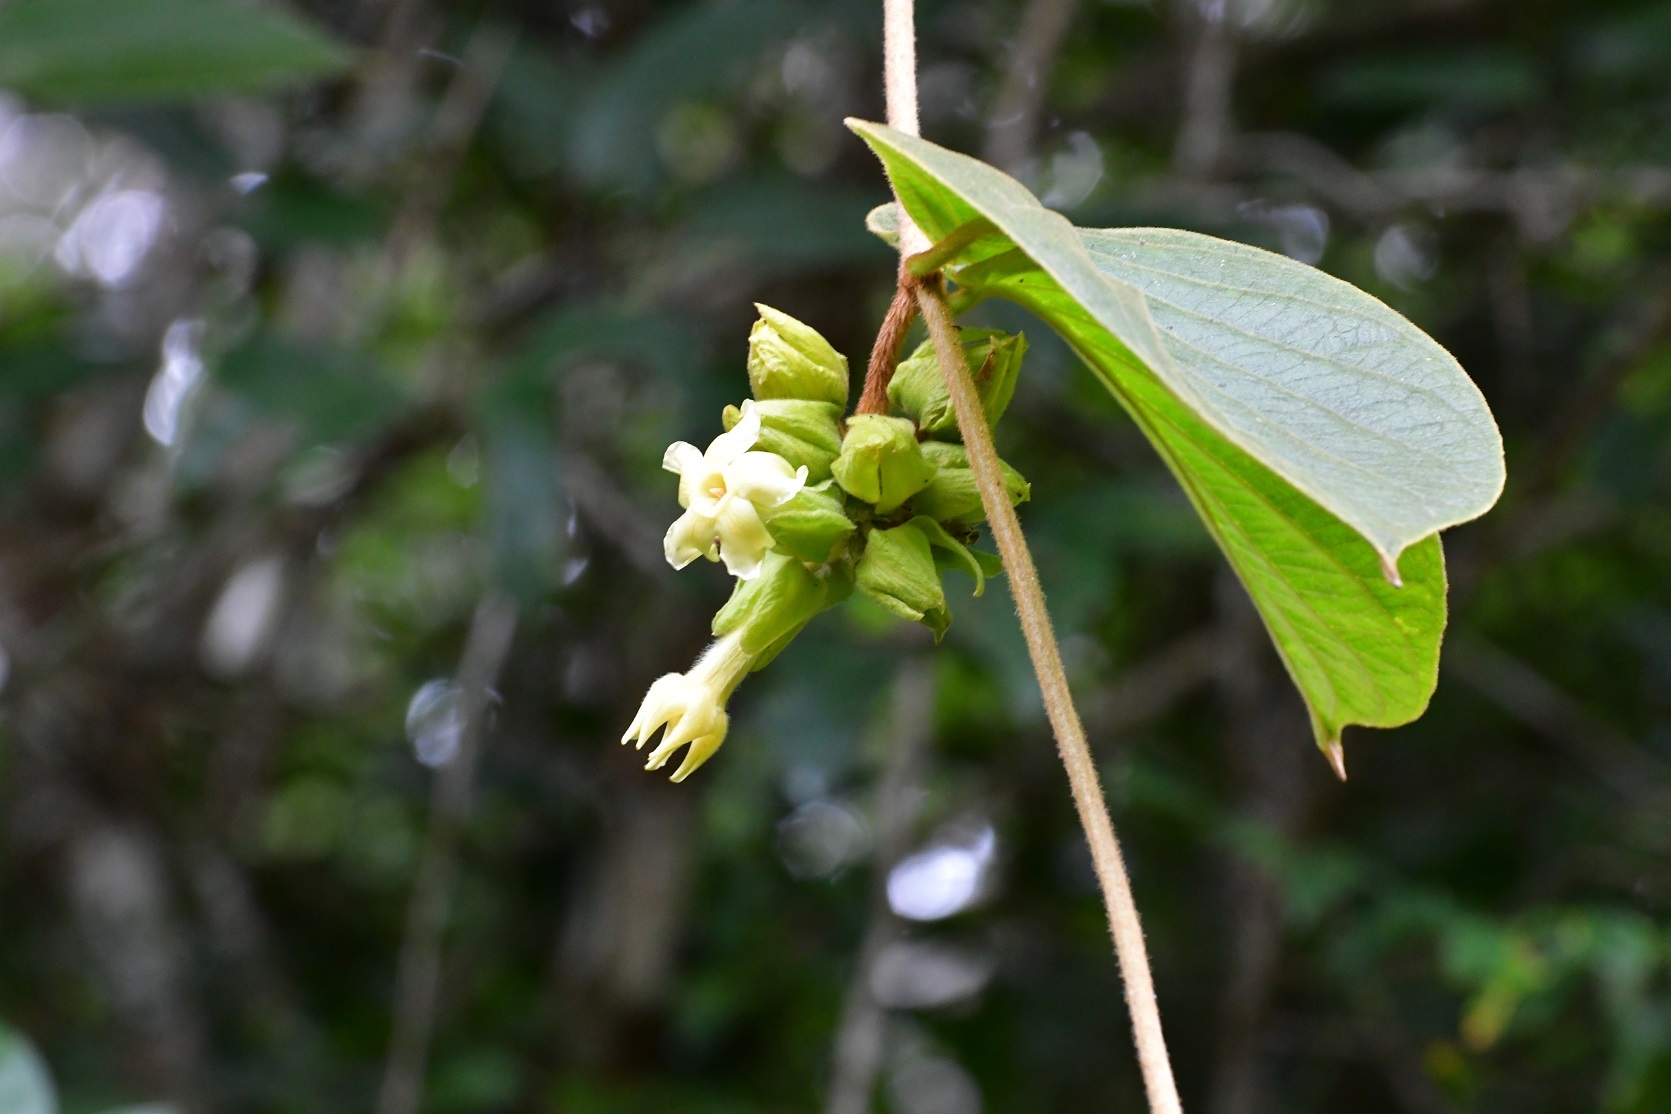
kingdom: Plantae
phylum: Tracheophyta
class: Magnoliopsida
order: Gentianales
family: Apocynaceae
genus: Prestonia
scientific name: Prestonia mexicana
